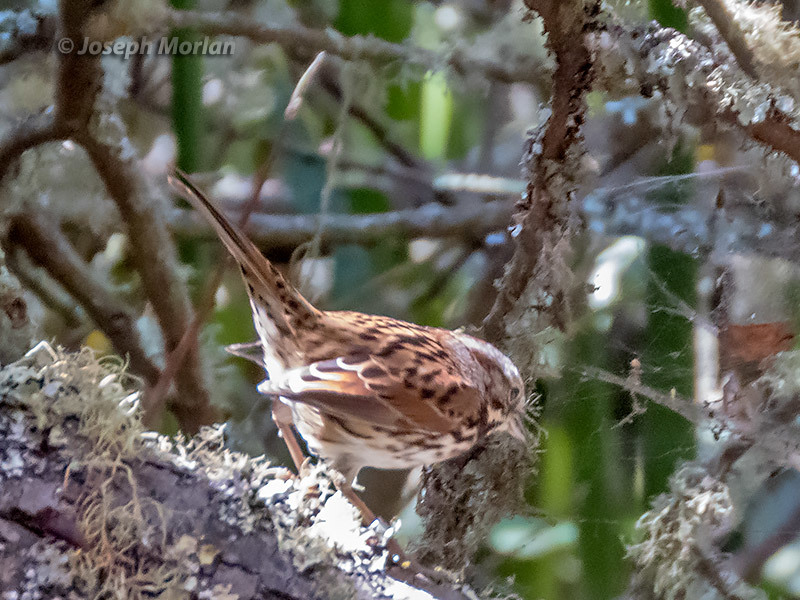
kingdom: Animalia
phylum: Chordata
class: Aves
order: Passeriformes
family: Passerellidae
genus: Melospiza
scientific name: Melospiza melodia
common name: Song sparrow
